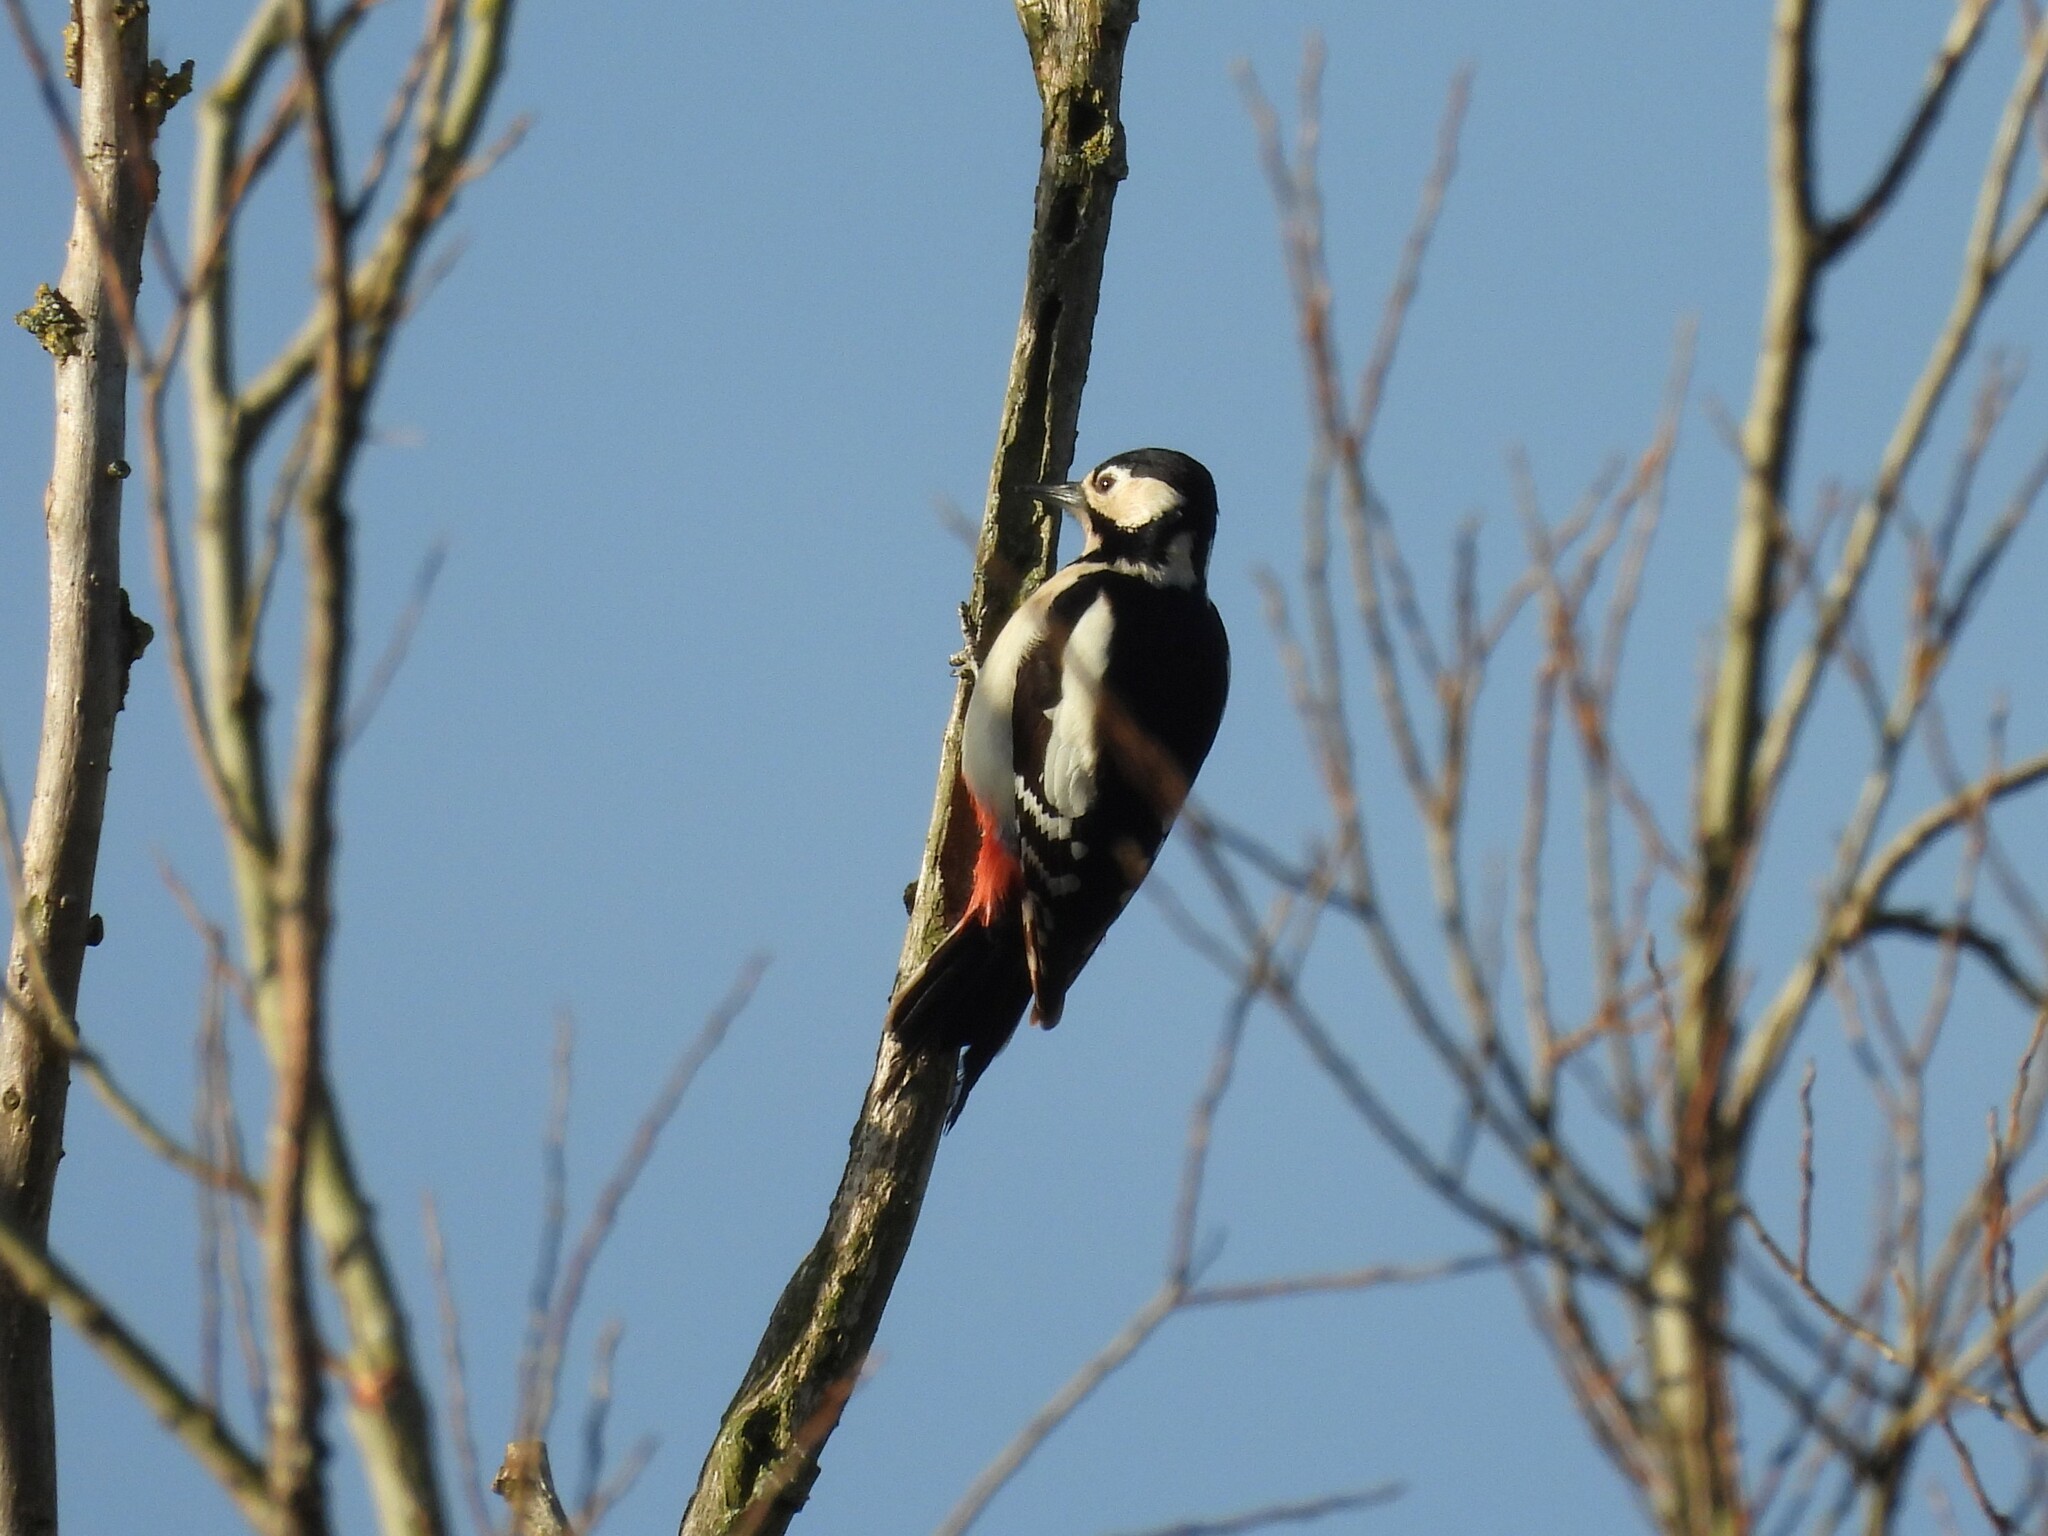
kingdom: Animalia
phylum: Chordata
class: Aves
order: Piciformes
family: Picidae
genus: Dendrocopos
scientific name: Dendrocopos major
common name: Great spotted woodpecker
